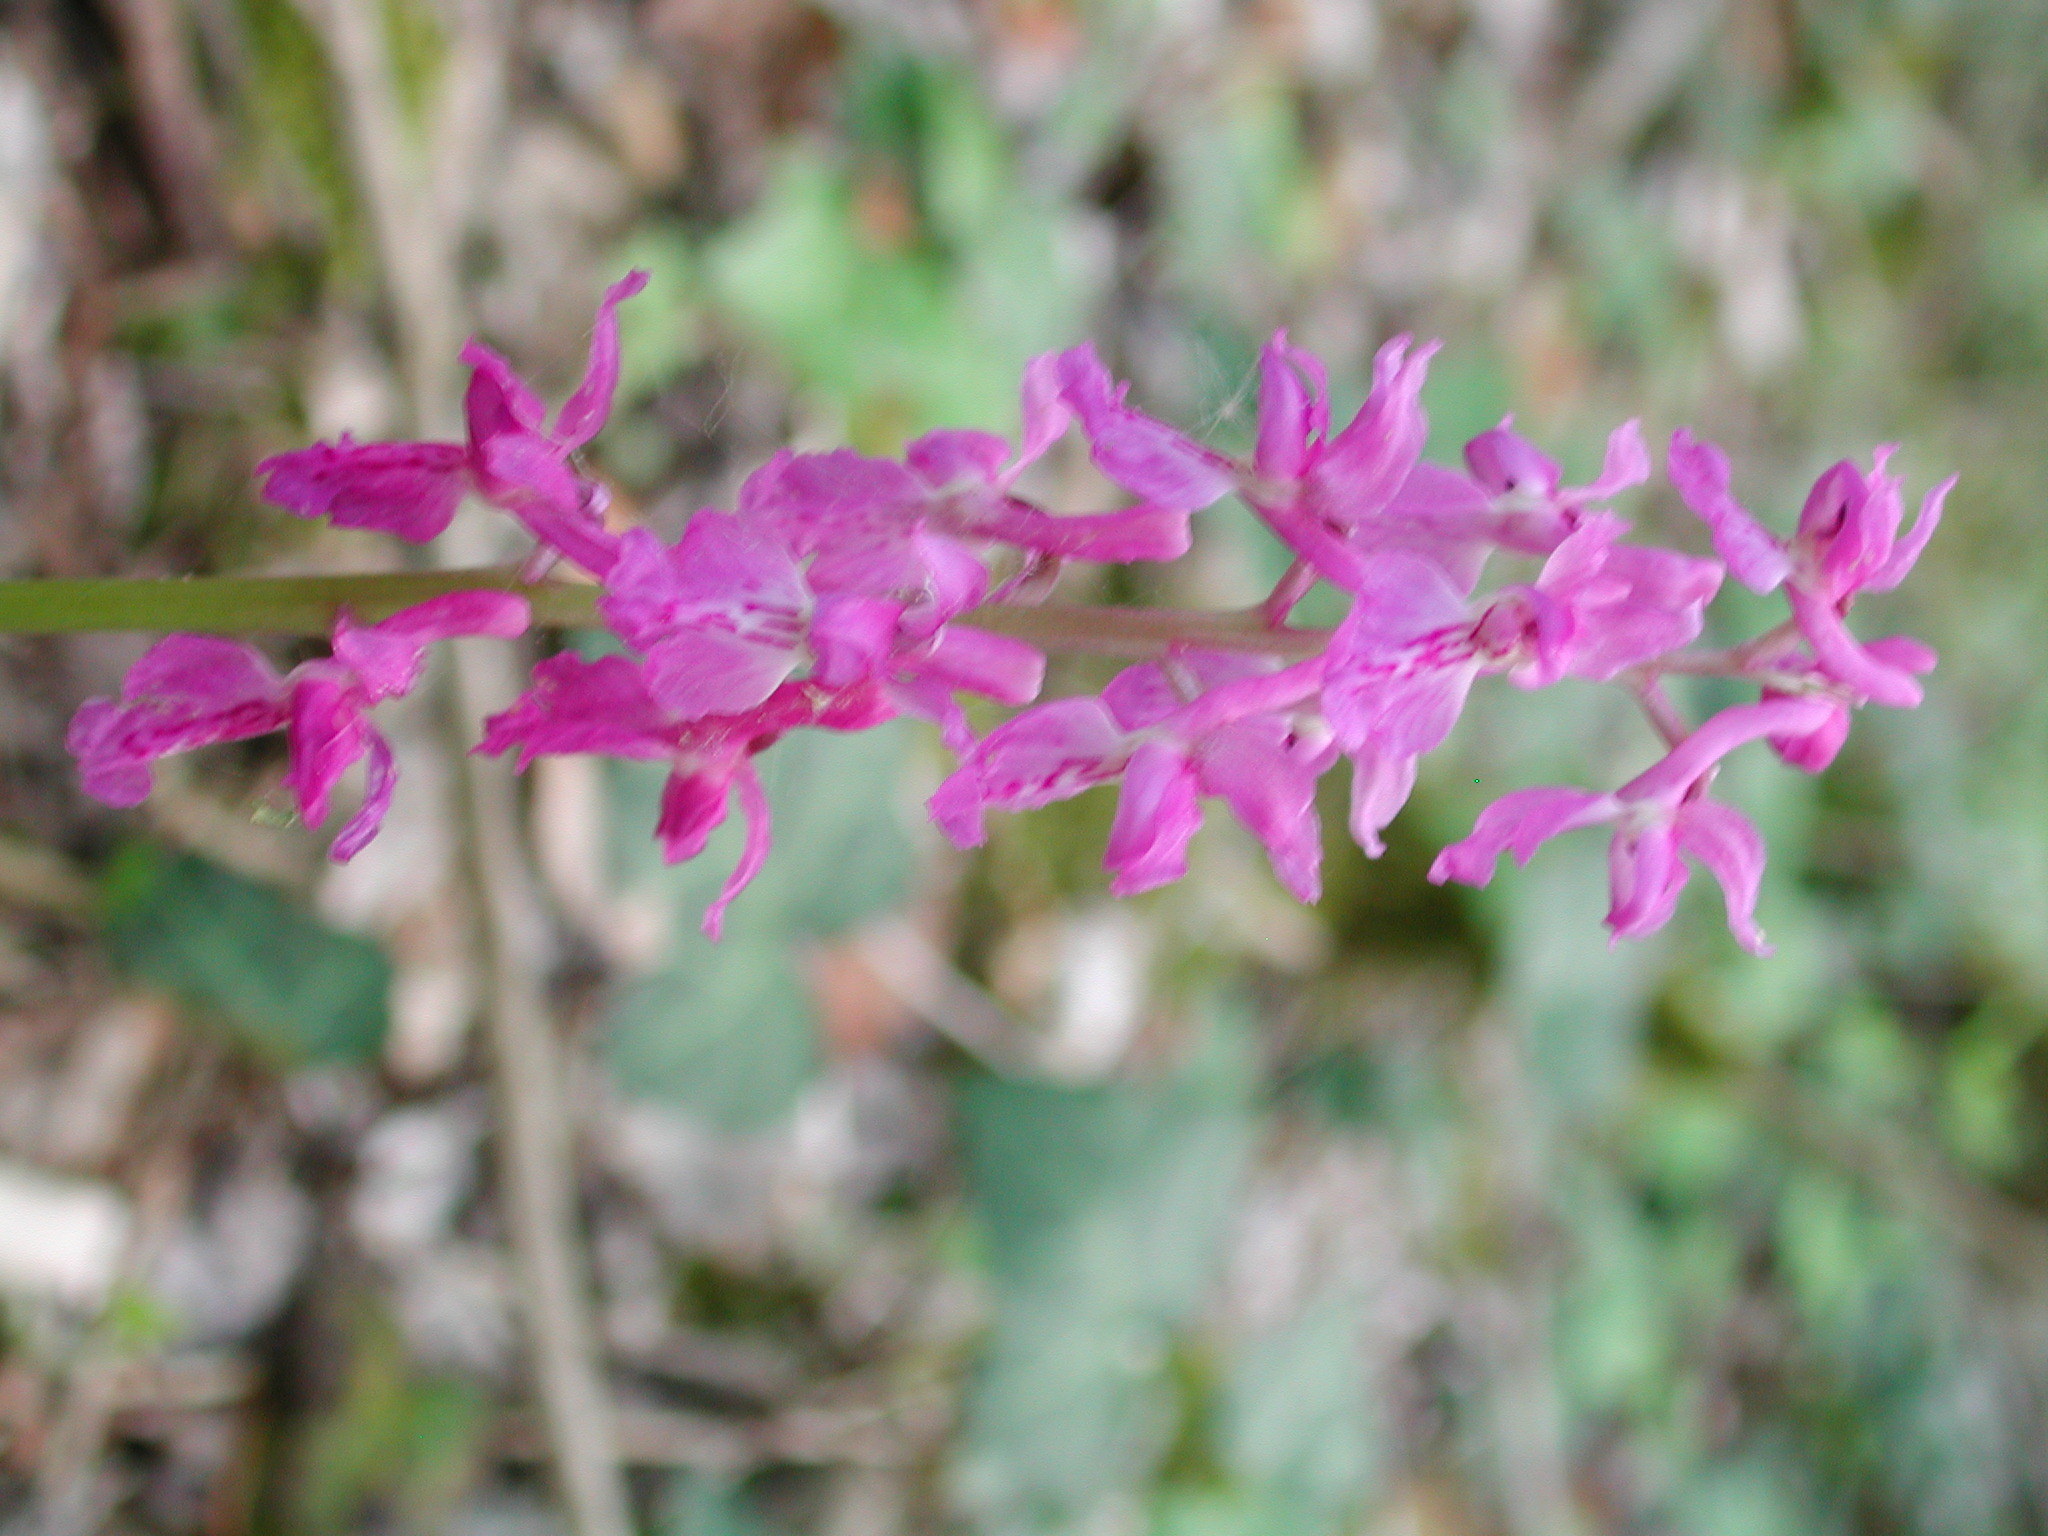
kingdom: Plantae
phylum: Tracheophyta
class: Liliopsida
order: Asparagales
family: Orchidaceae
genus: Orchis
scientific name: Orchis mascula
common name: Early-purple orchid
